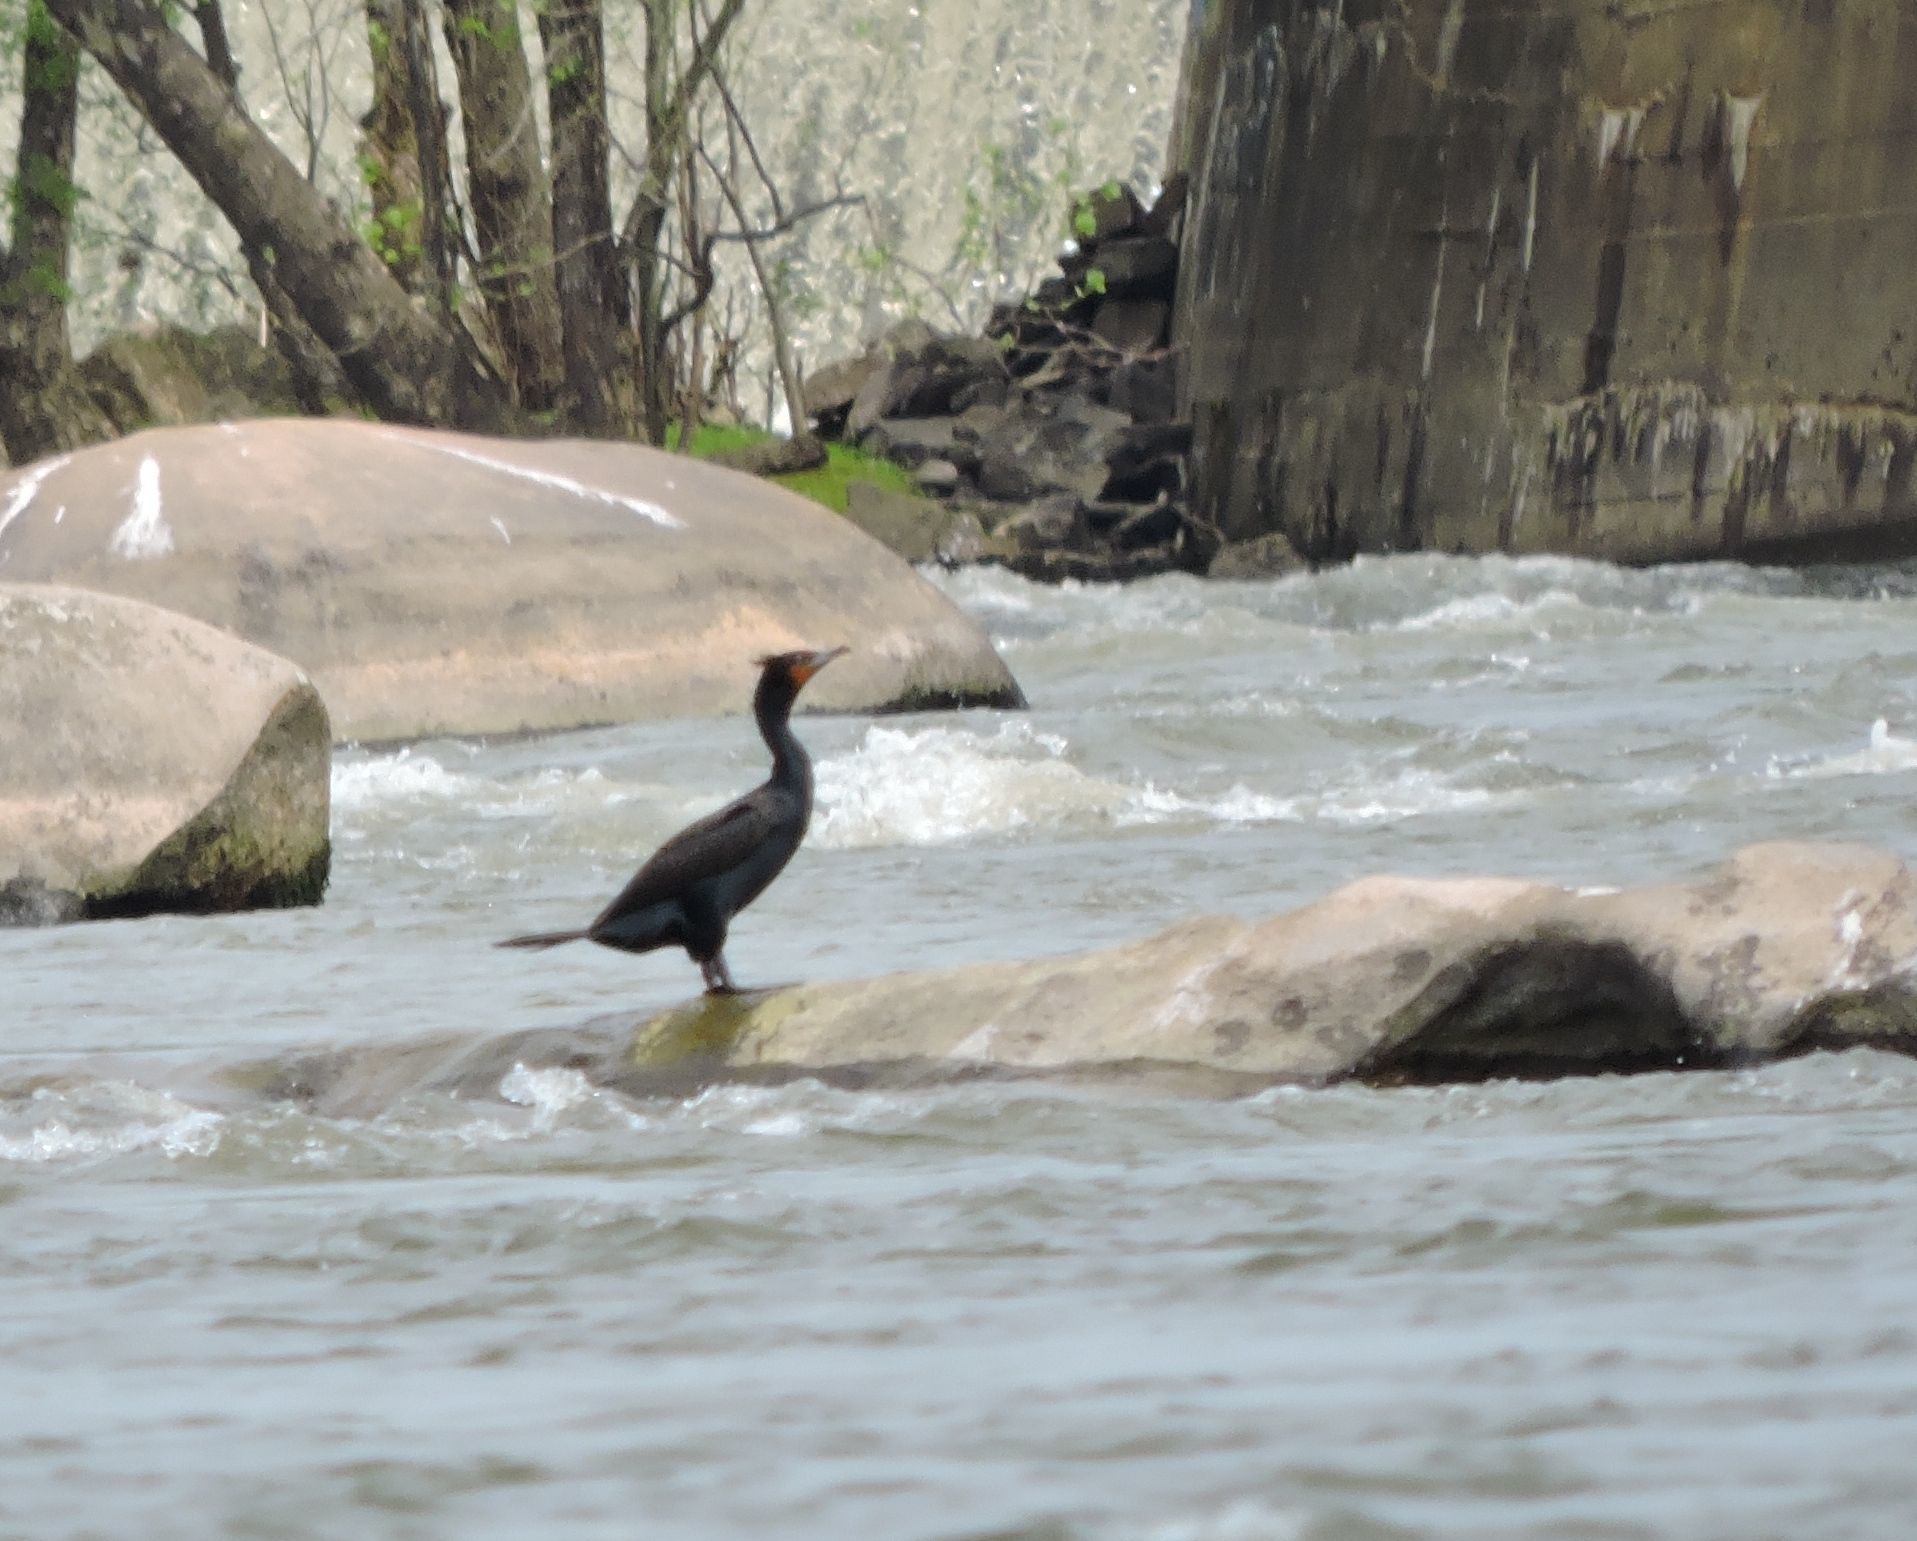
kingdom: Animalia
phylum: Chordata
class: Aves
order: Suliformes
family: Phalacrocoracidae
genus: Phalacrocorax
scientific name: Phalacrocorax auritus
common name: Double-crested cormorant
